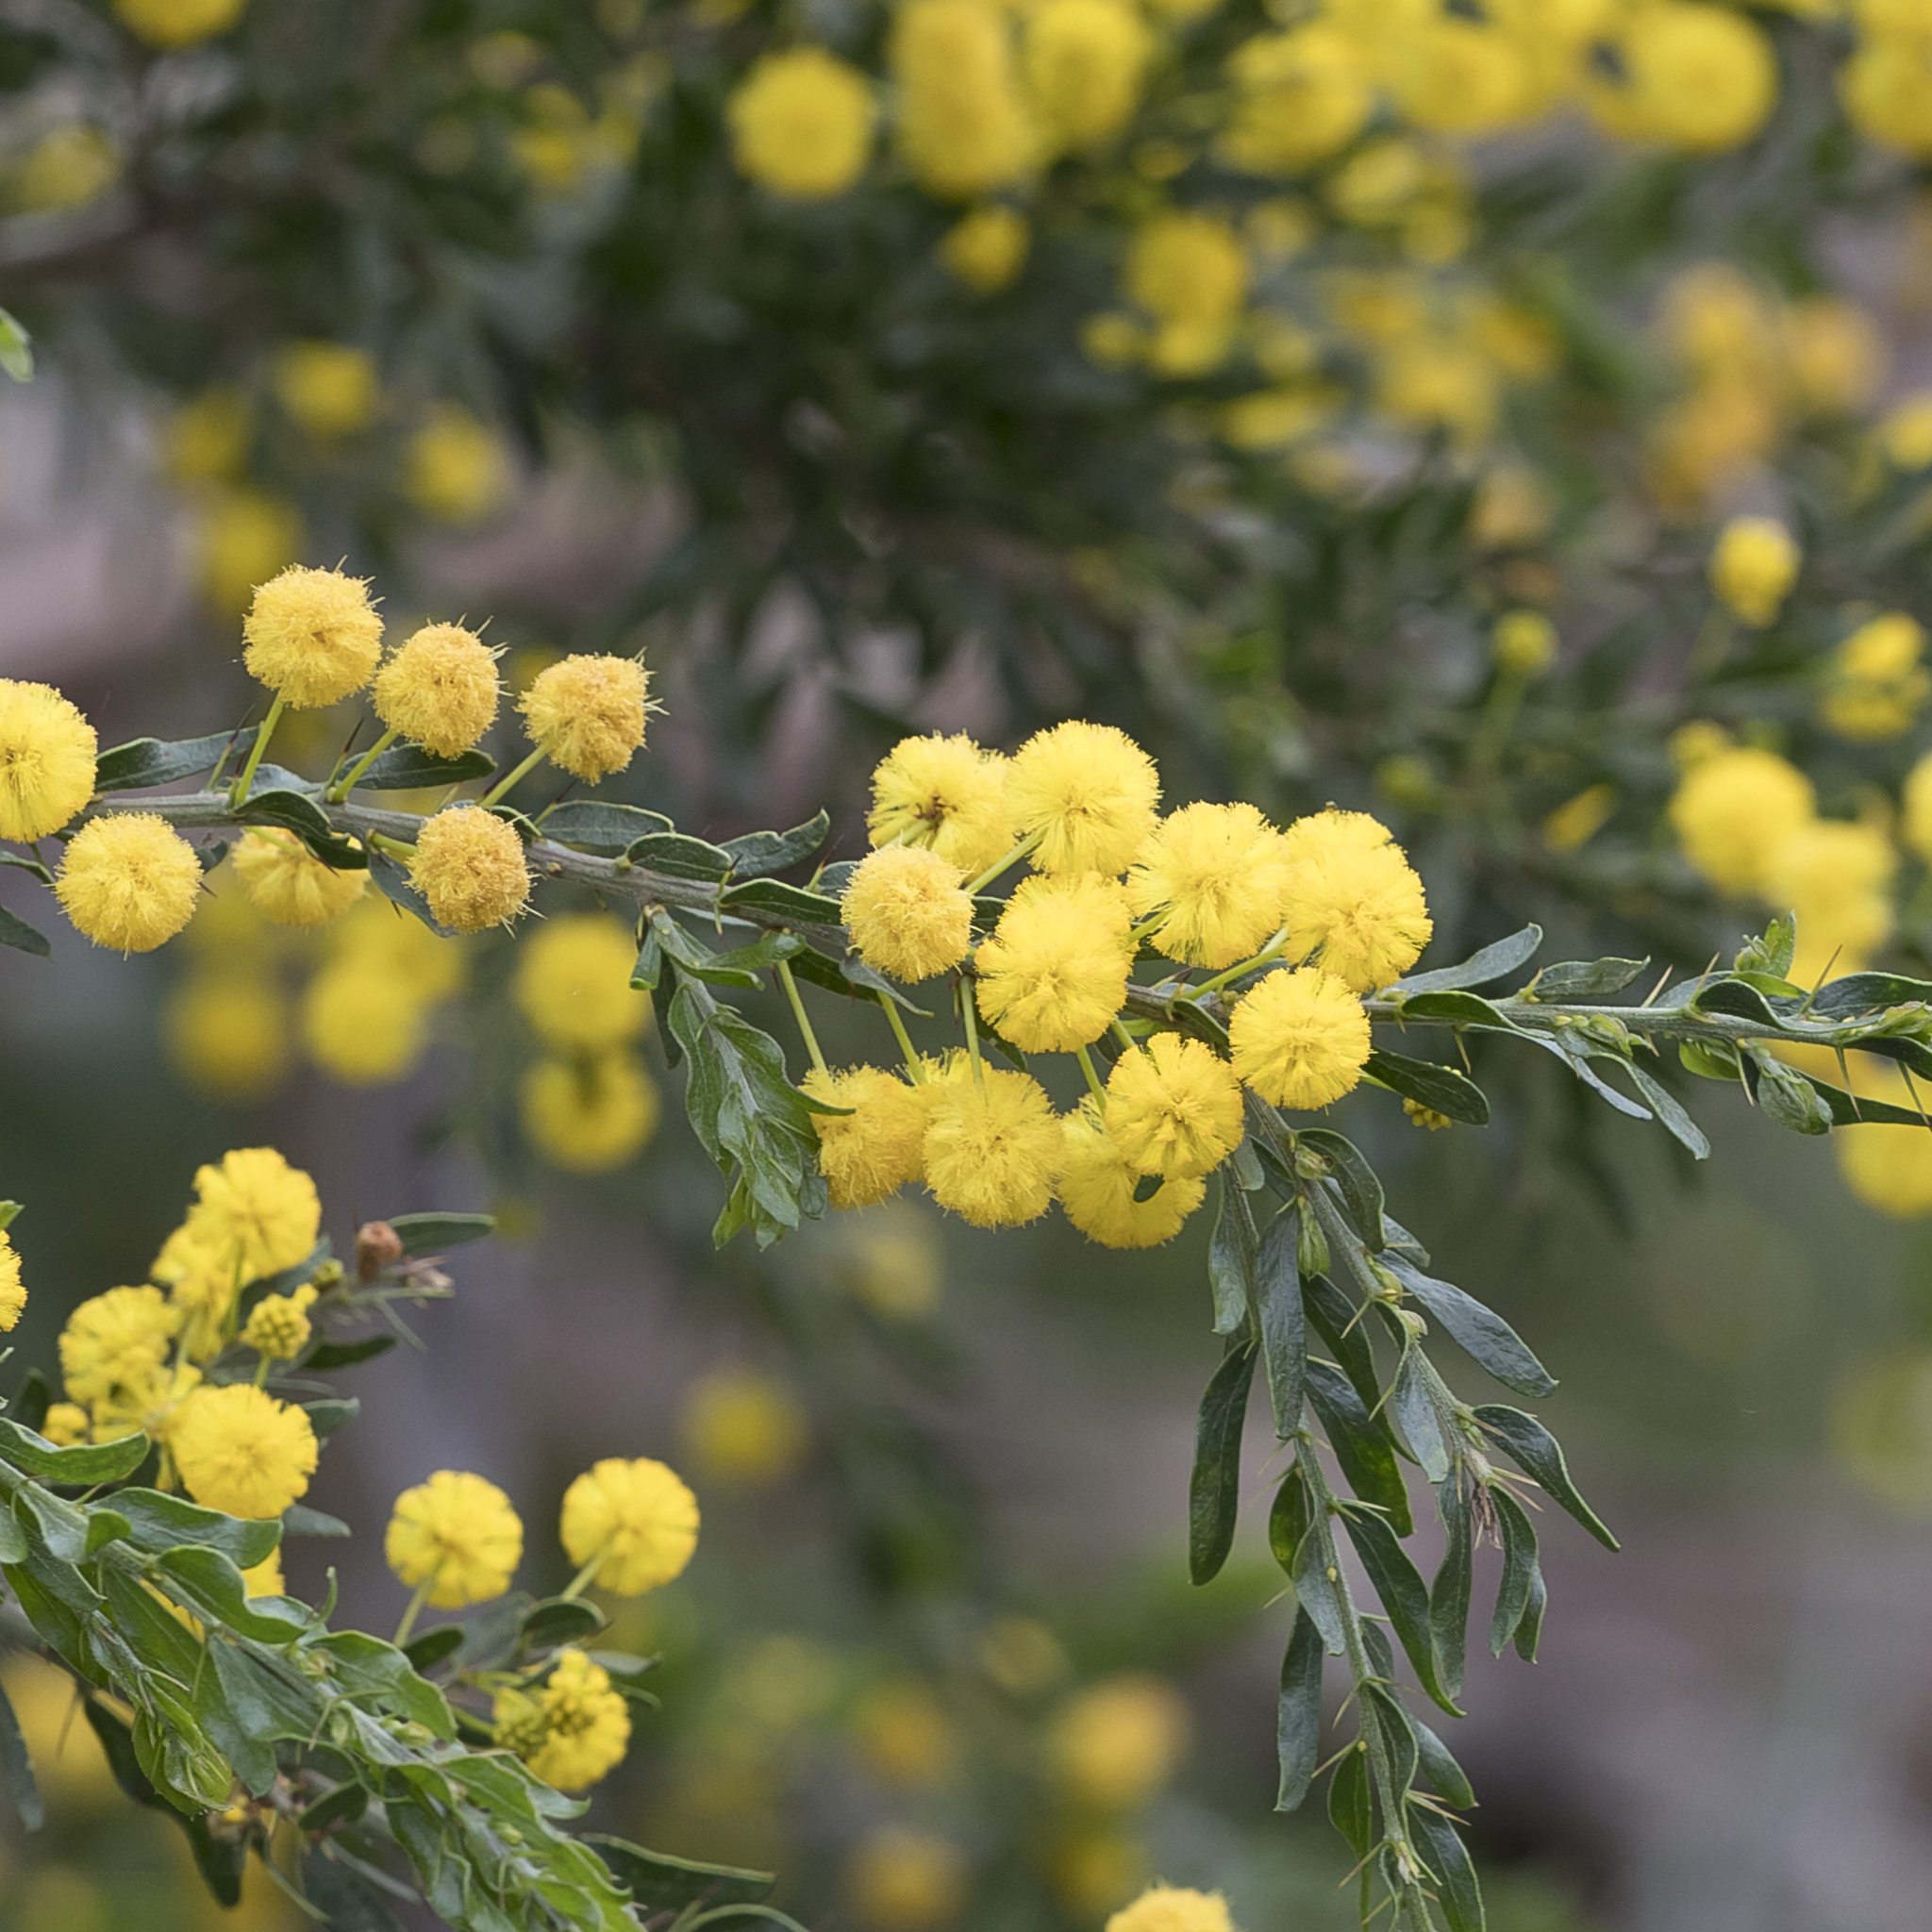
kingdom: Plantae
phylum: Tracheophyta
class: Magnoliopsida
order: Fabales
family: Fabaceae
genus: Acacia
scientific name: Acacia paradoxa
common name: Paradox acacia
